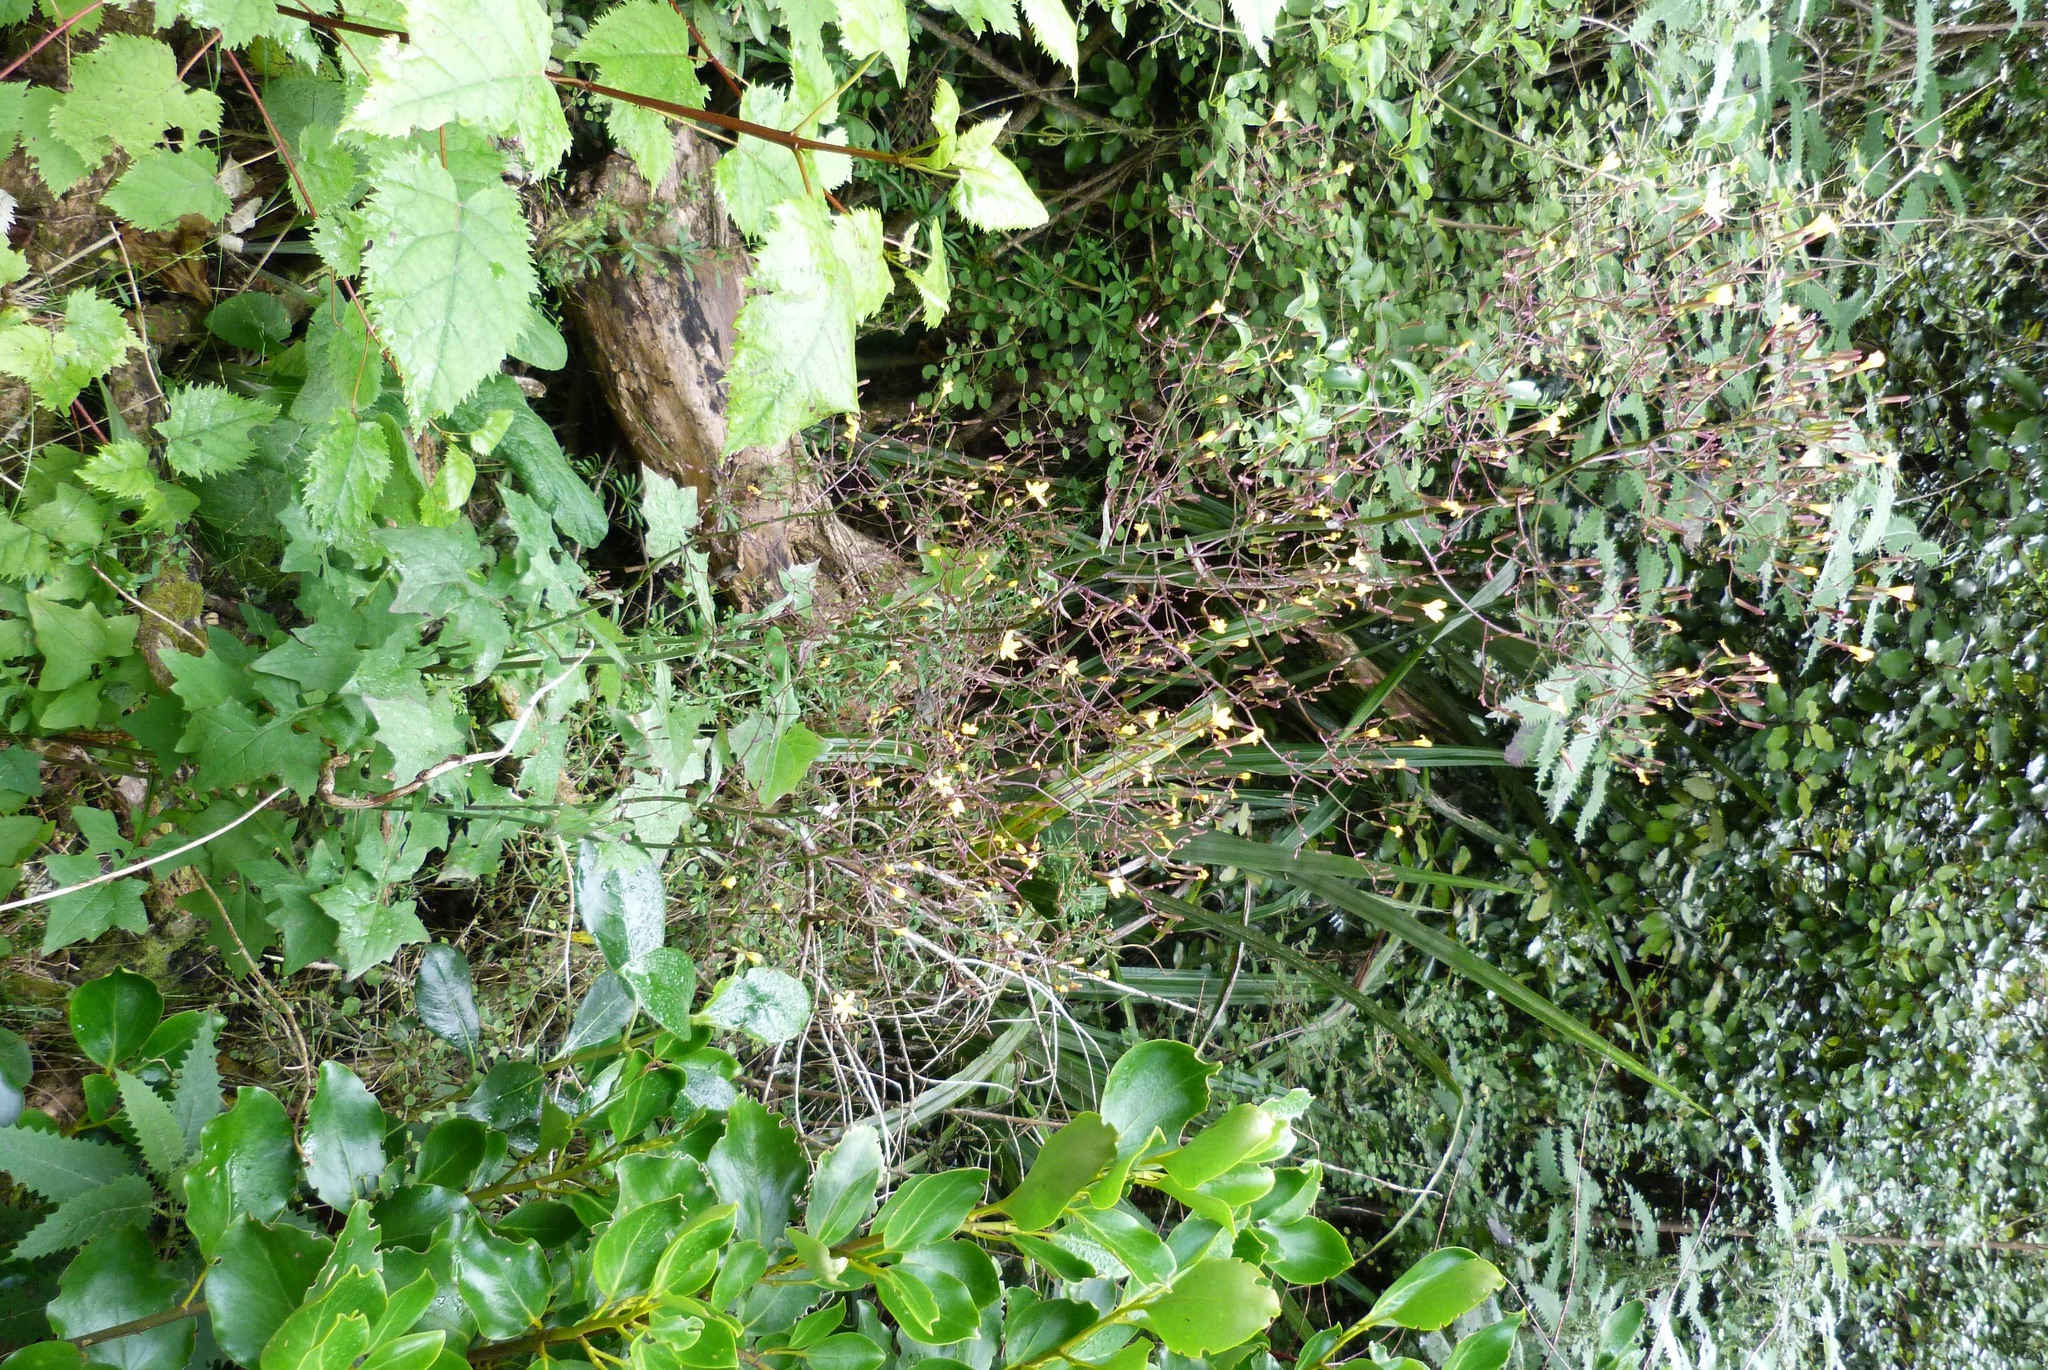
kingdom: Plantae
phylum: Tracheophyta
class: Magnoliopsida
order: Asterales
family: Asteraceae
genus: Mycelis
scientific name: Mycelis muralis
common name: Wall lettuce
